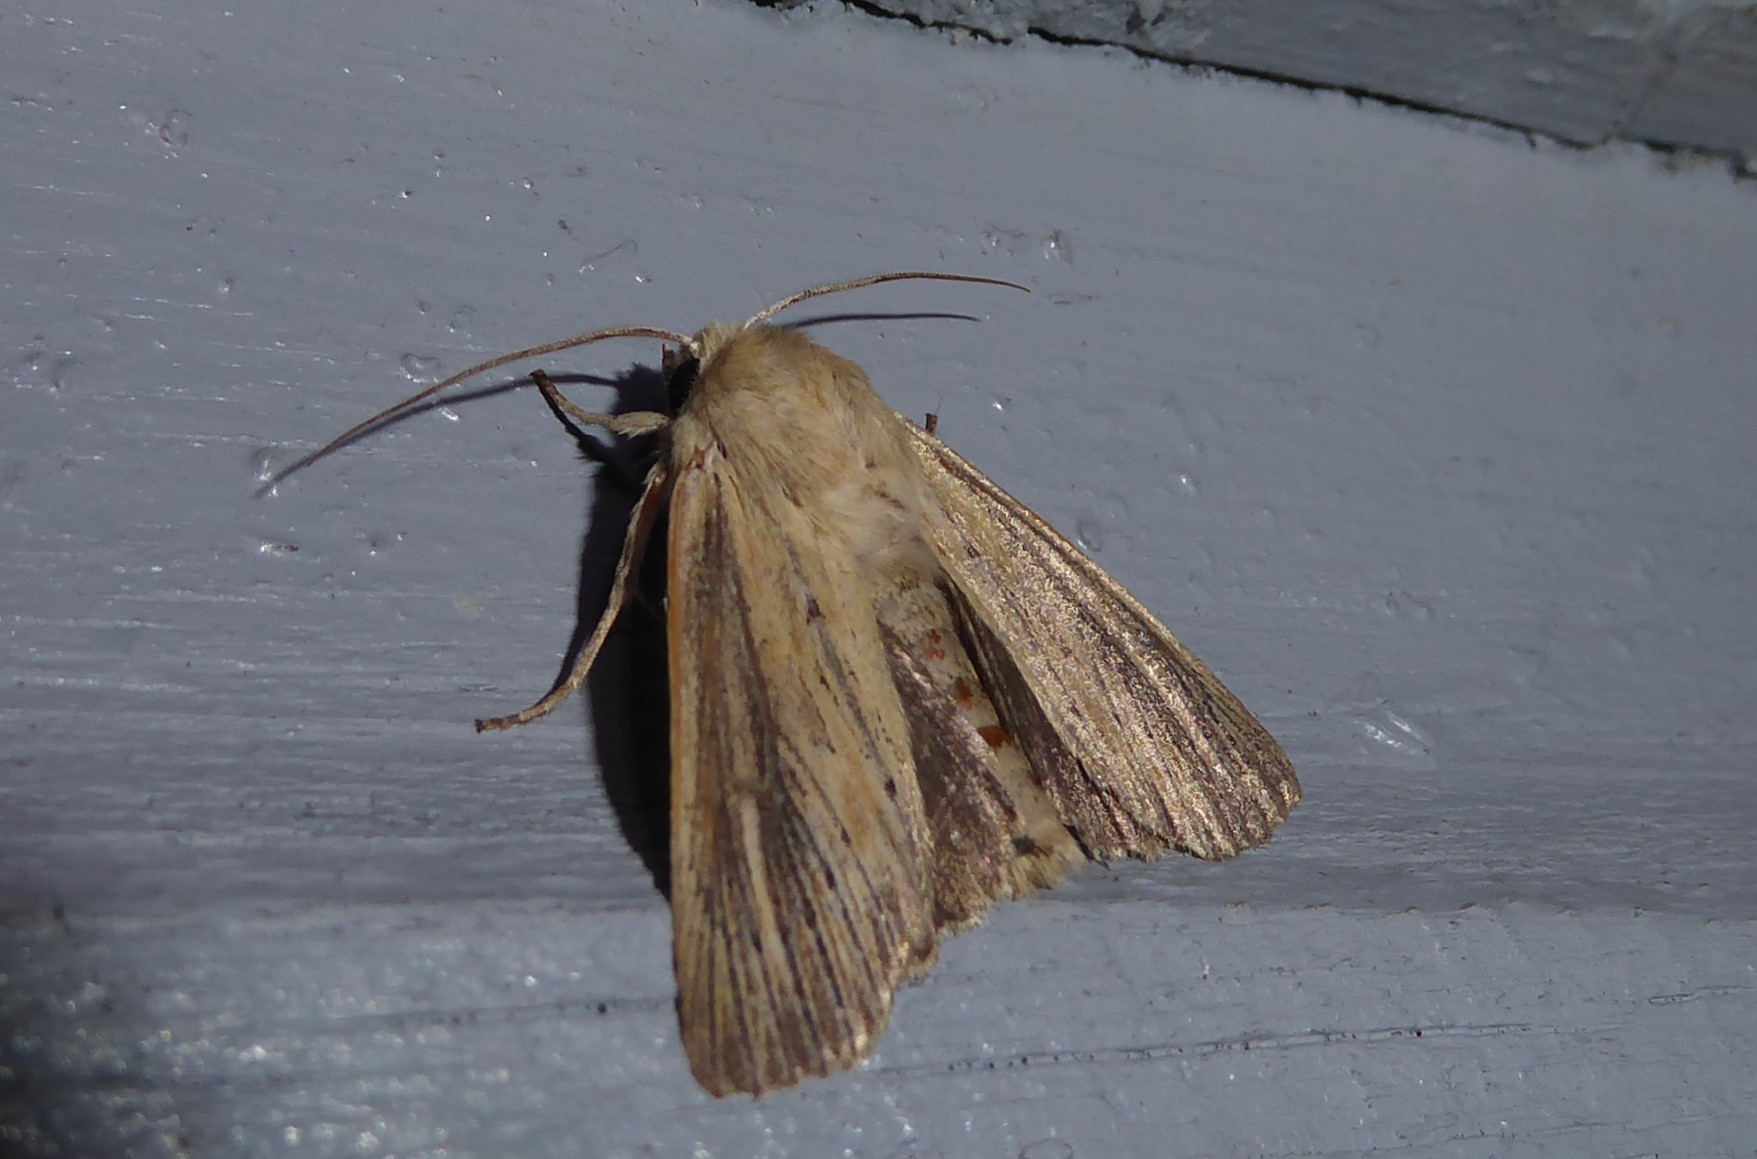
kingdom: Animalia
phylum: Arthropoda
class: Insecta
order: Lepidoptera
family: Noctuidae
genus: Ichneutica
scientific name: Ichneutica arotis
